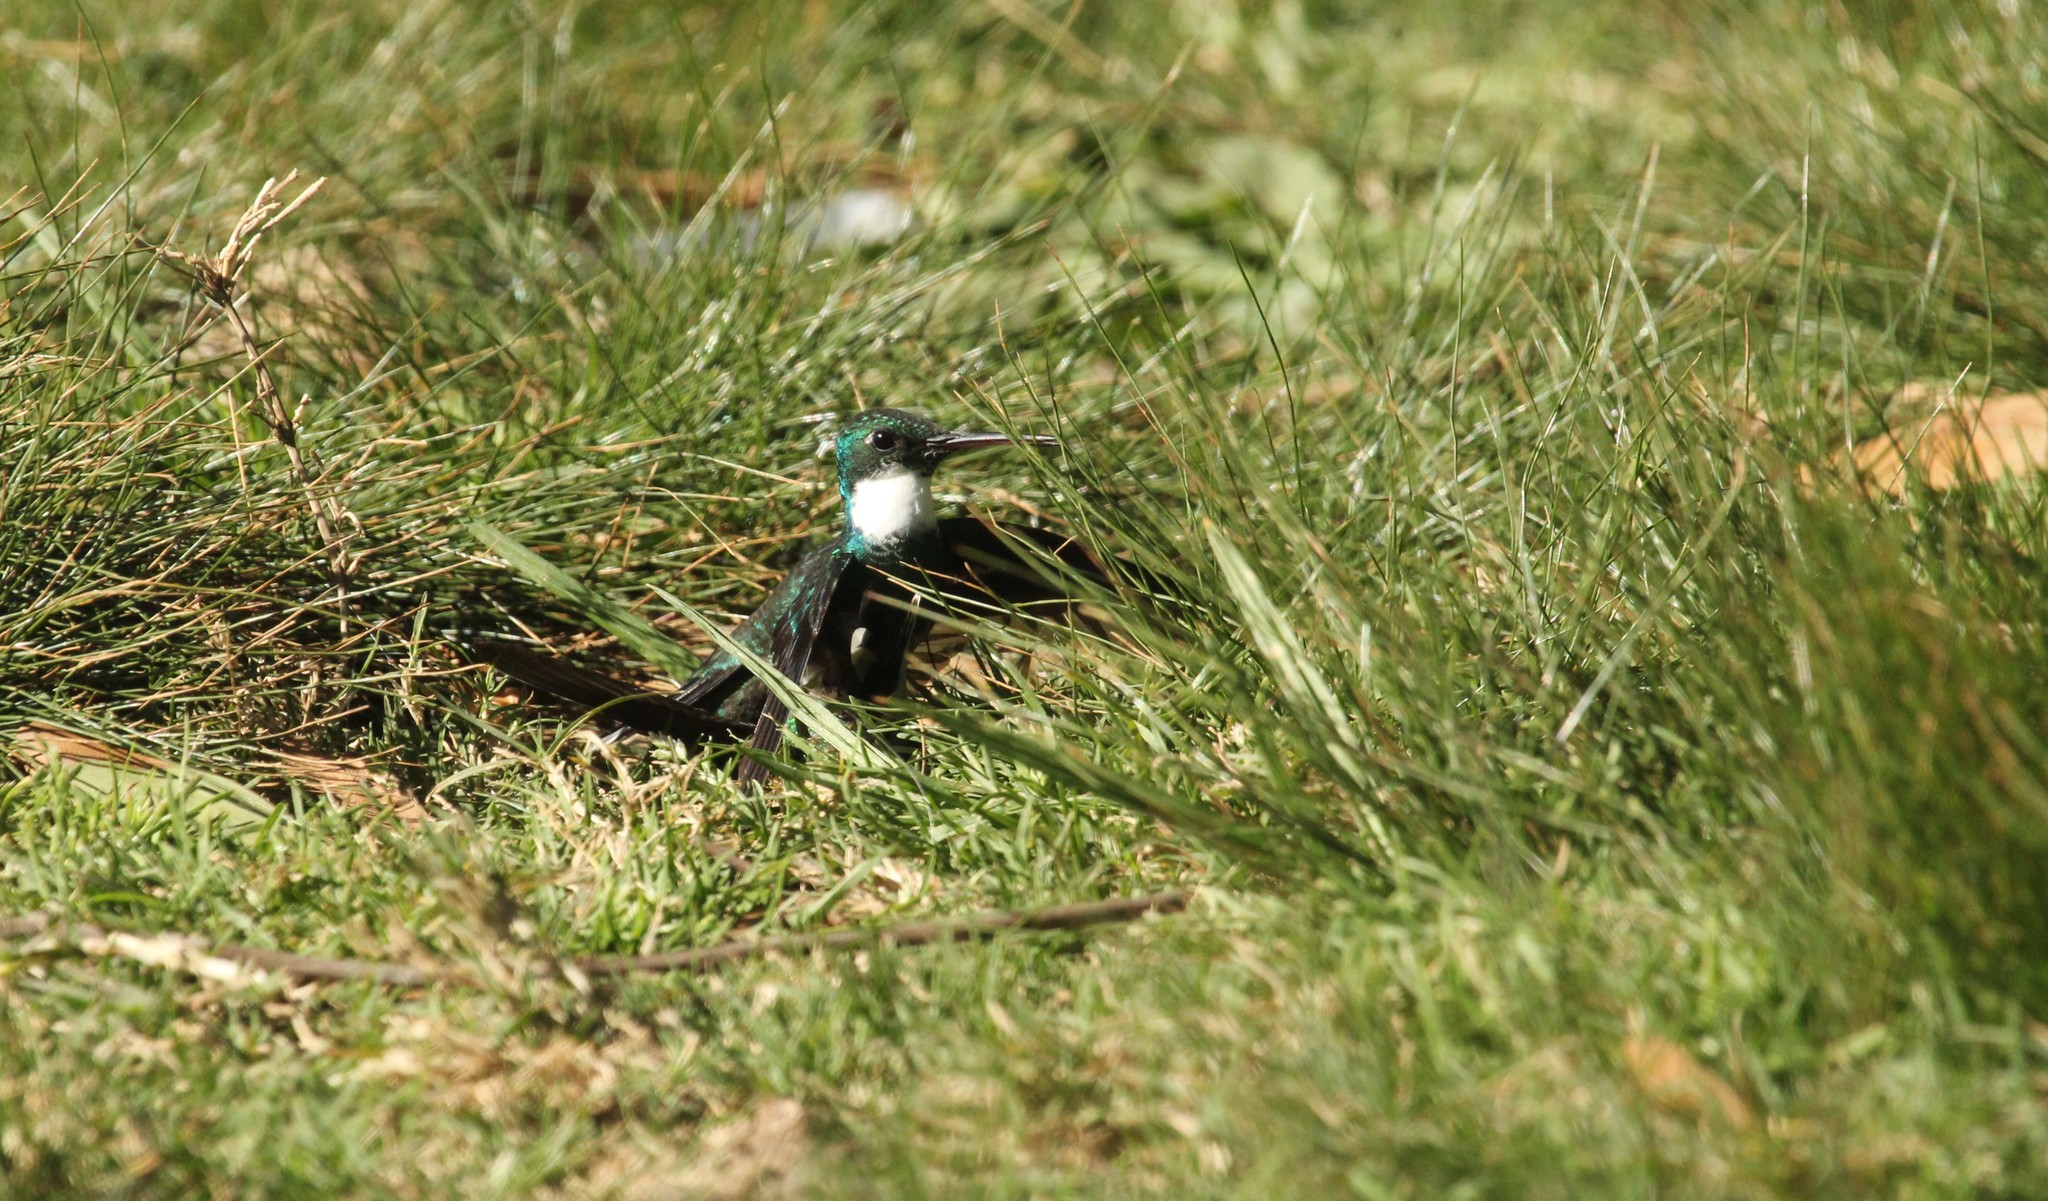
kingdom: Animalia
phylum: Chordata
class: Aves
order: Apodiformes
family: Trochilidae
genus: Leucochloris
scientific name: Leucochloris albicollis
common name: White-throated hummingbird
